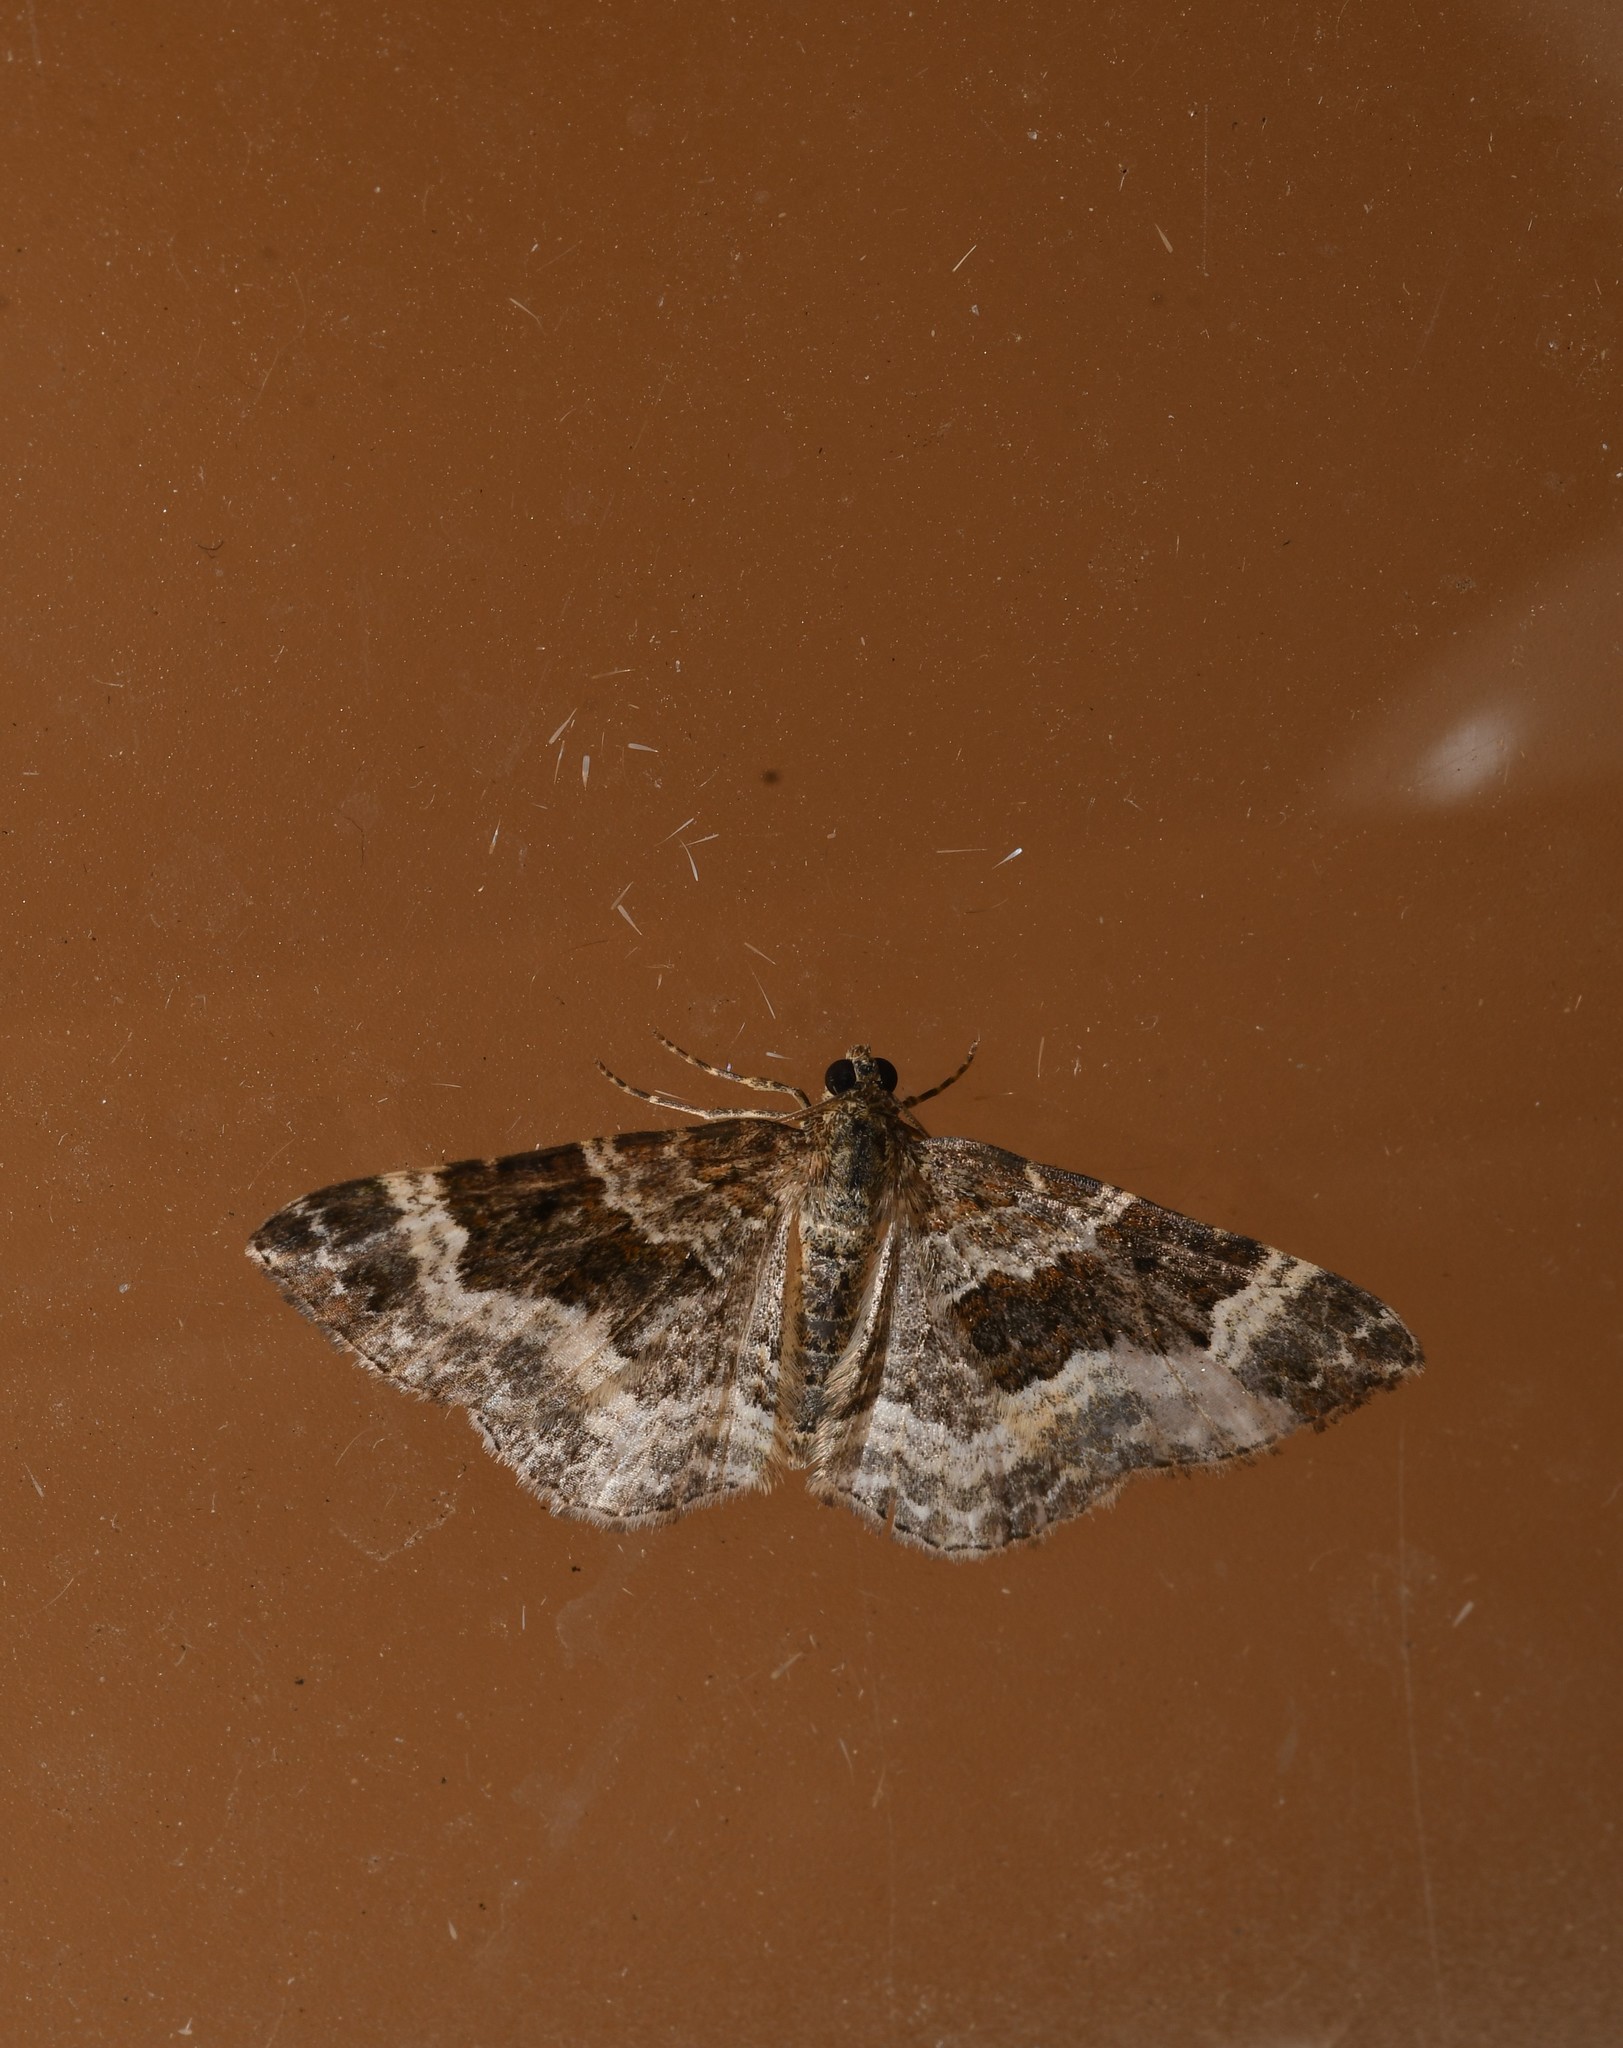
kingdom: Animalia
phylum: Arthropoda
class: Insecta
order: Lepidoptera
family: Geometridae
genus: Epirrhoe
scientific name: Epirrhoe alternata
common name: Common carpet
